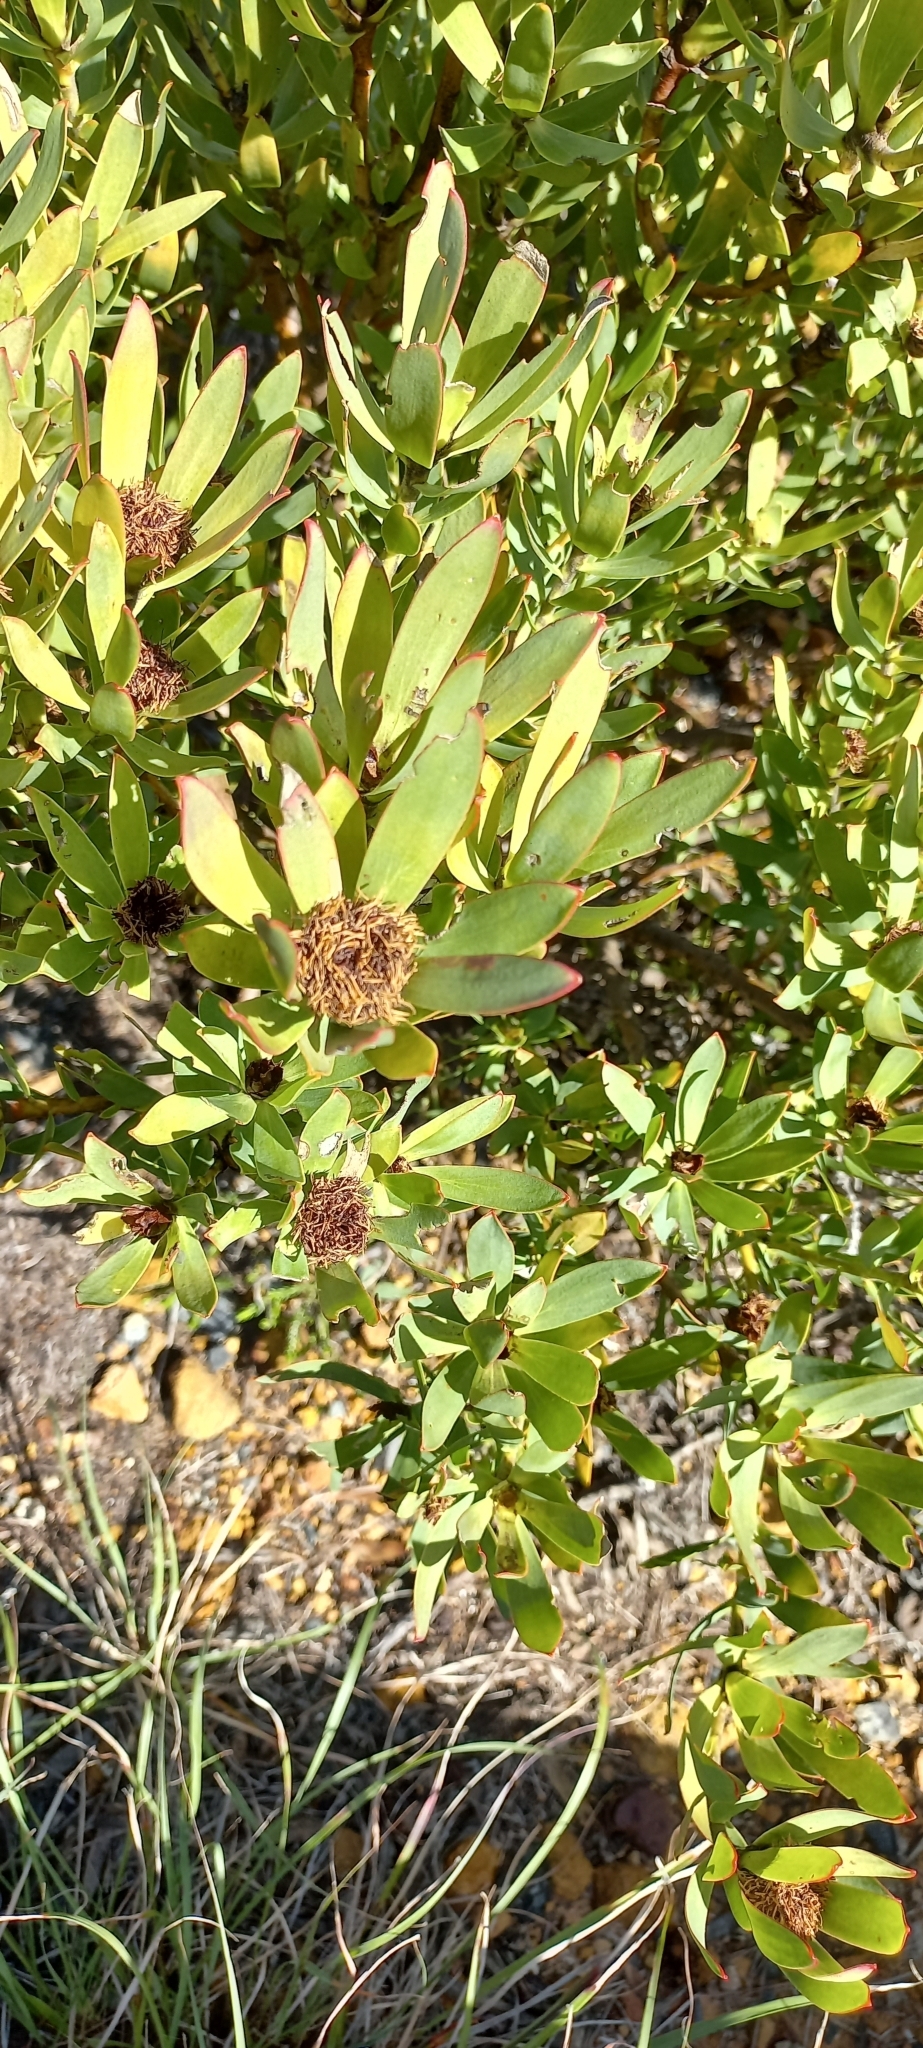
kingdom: Plantae
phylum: Tracheophyta
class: Magnoliopsida
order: Proteales
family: Proteaceae
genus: Leucadendron
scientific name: Leucadendron sessile
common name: Western sunbush
